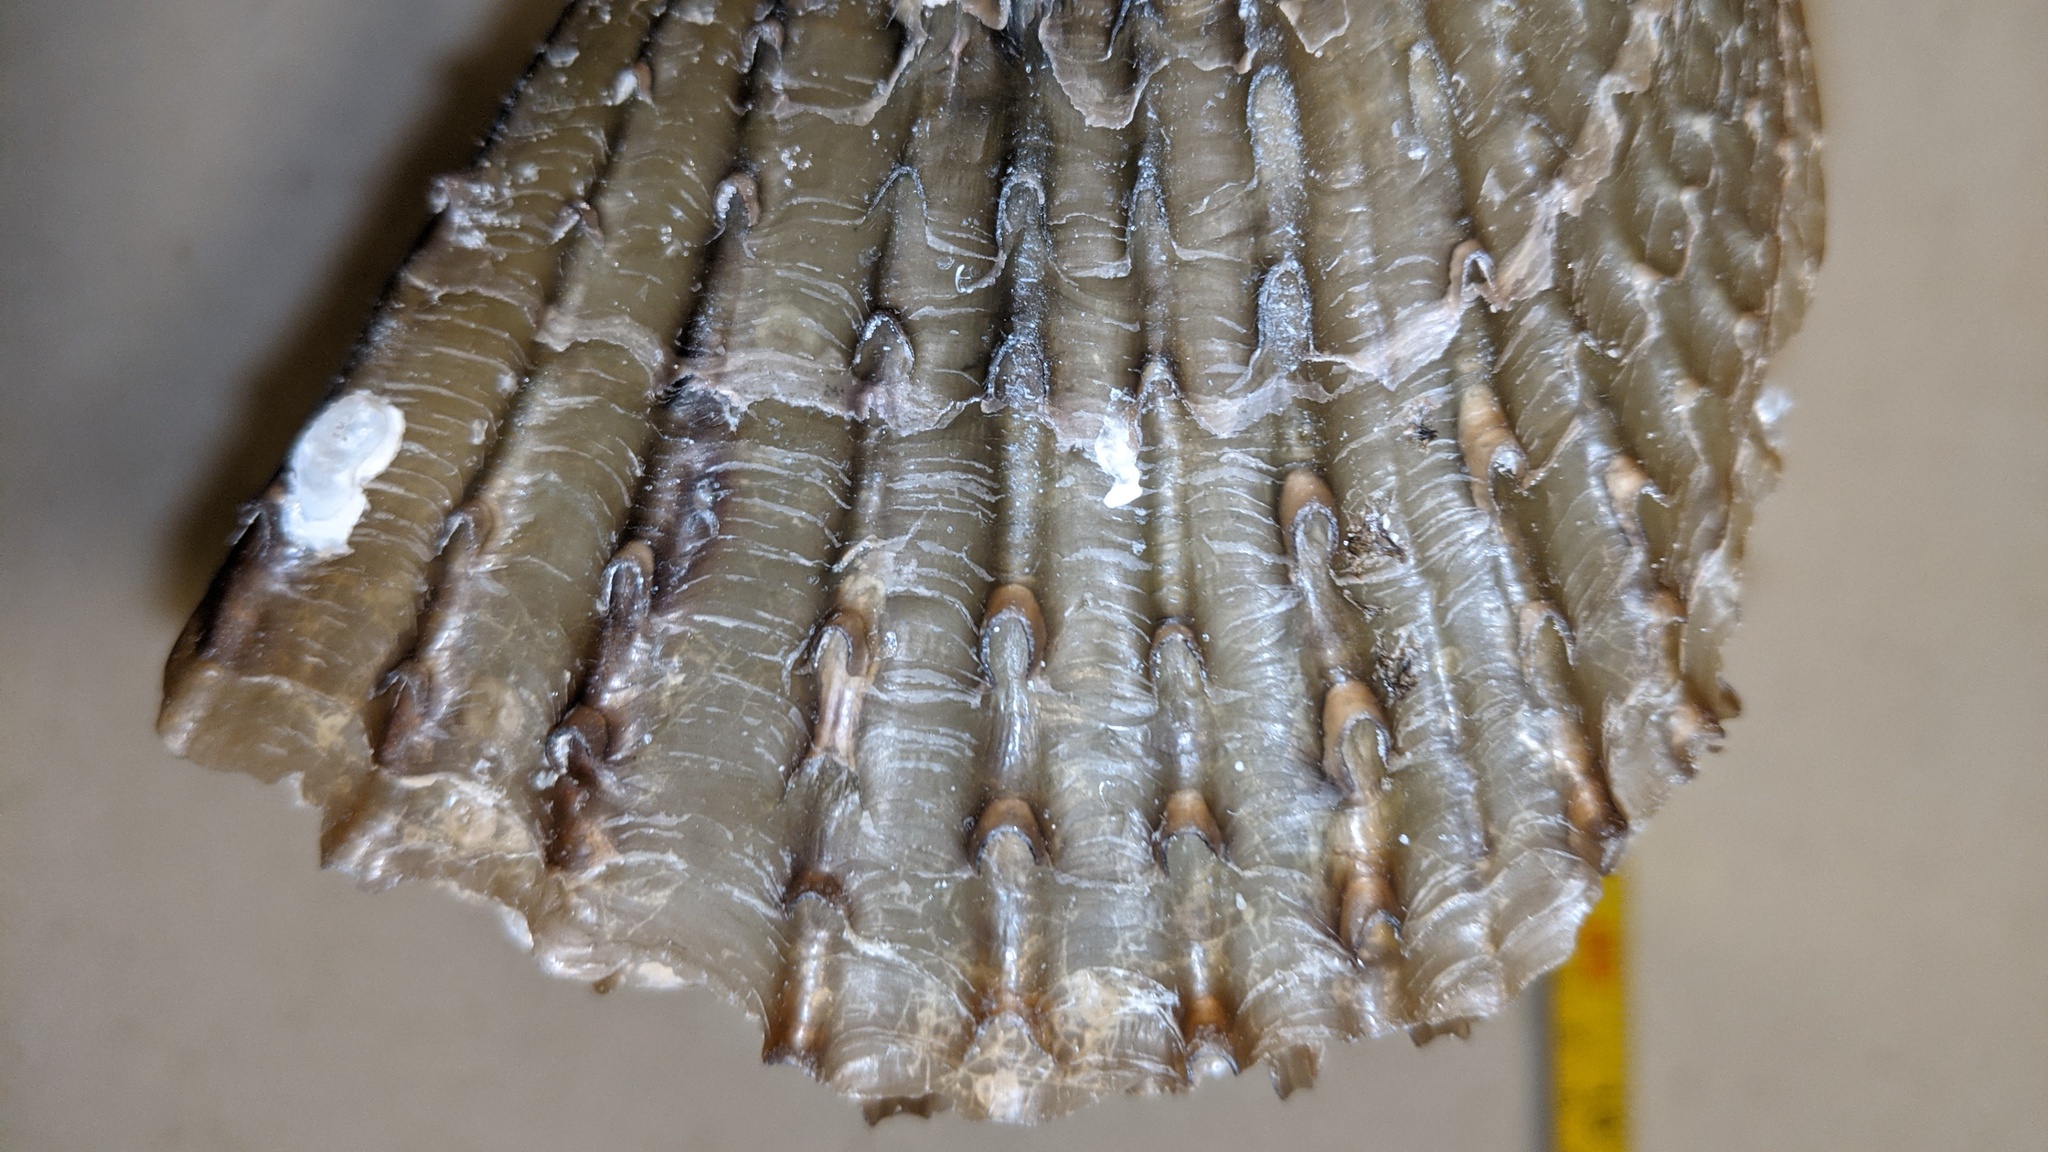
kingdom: Animalia
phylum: Mollusca
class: Bivalvia
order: Ostreida
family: Pinnidae
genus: Atrina
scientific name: Atrina rigida
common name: Stiff penshell
